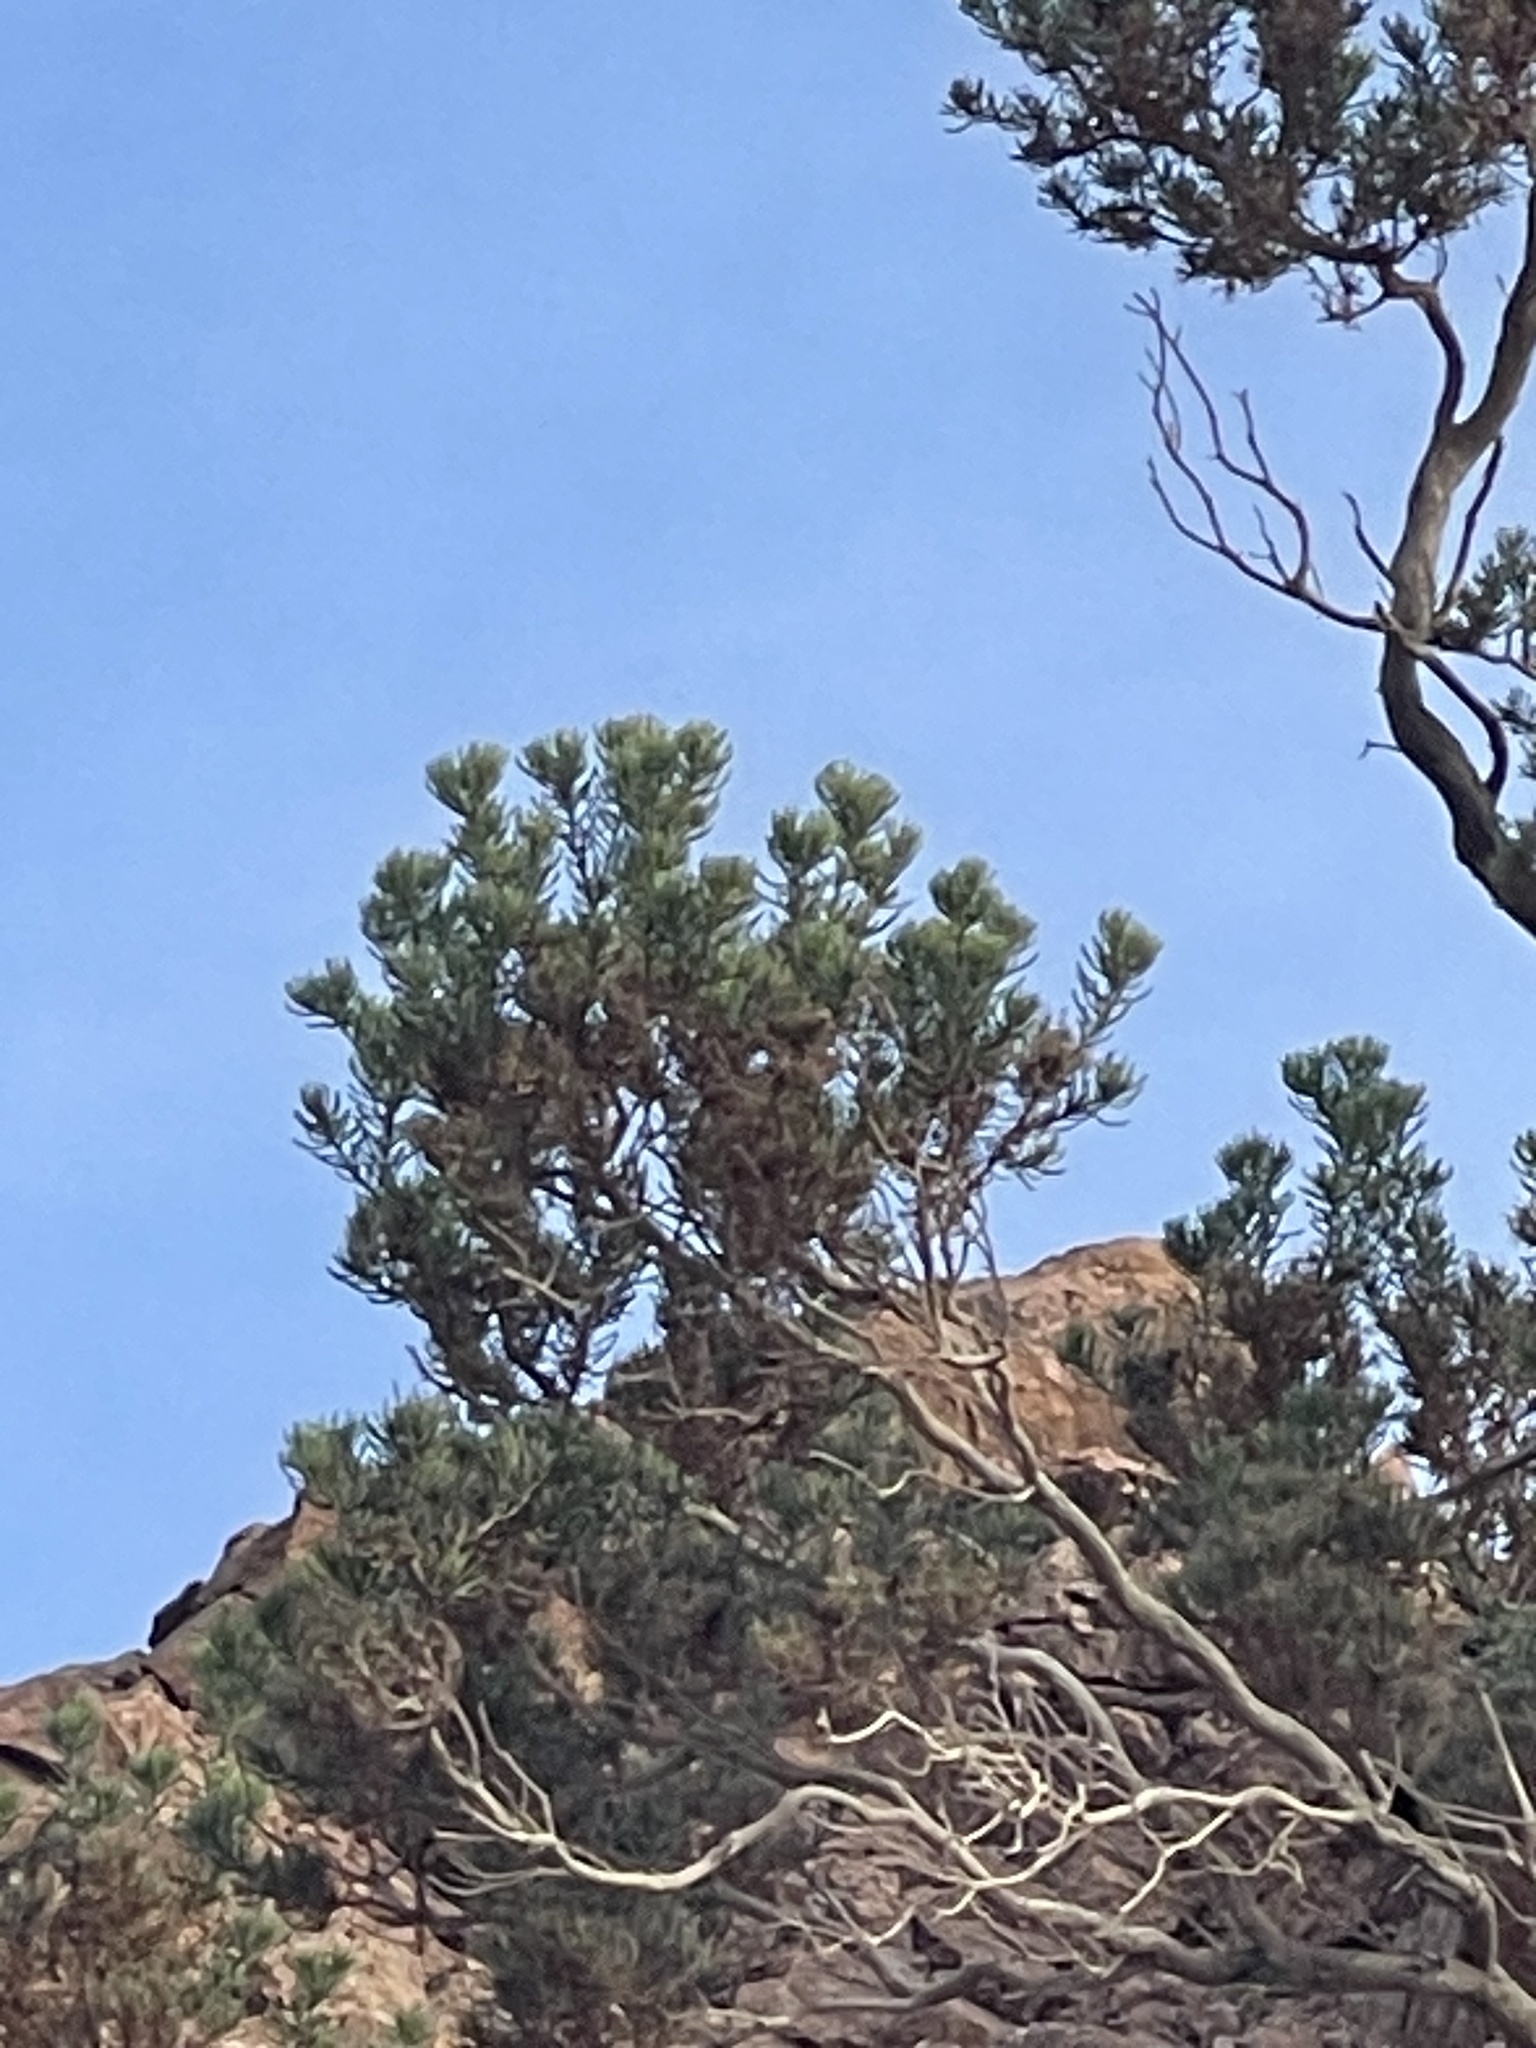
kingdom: Plantae
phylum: Tracheophyta
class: Magnoliopsida
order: Asterales
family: Asteraceae
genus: Peucephyllum
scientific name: Peucephyllum schottii
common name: Pygmy-cedar
